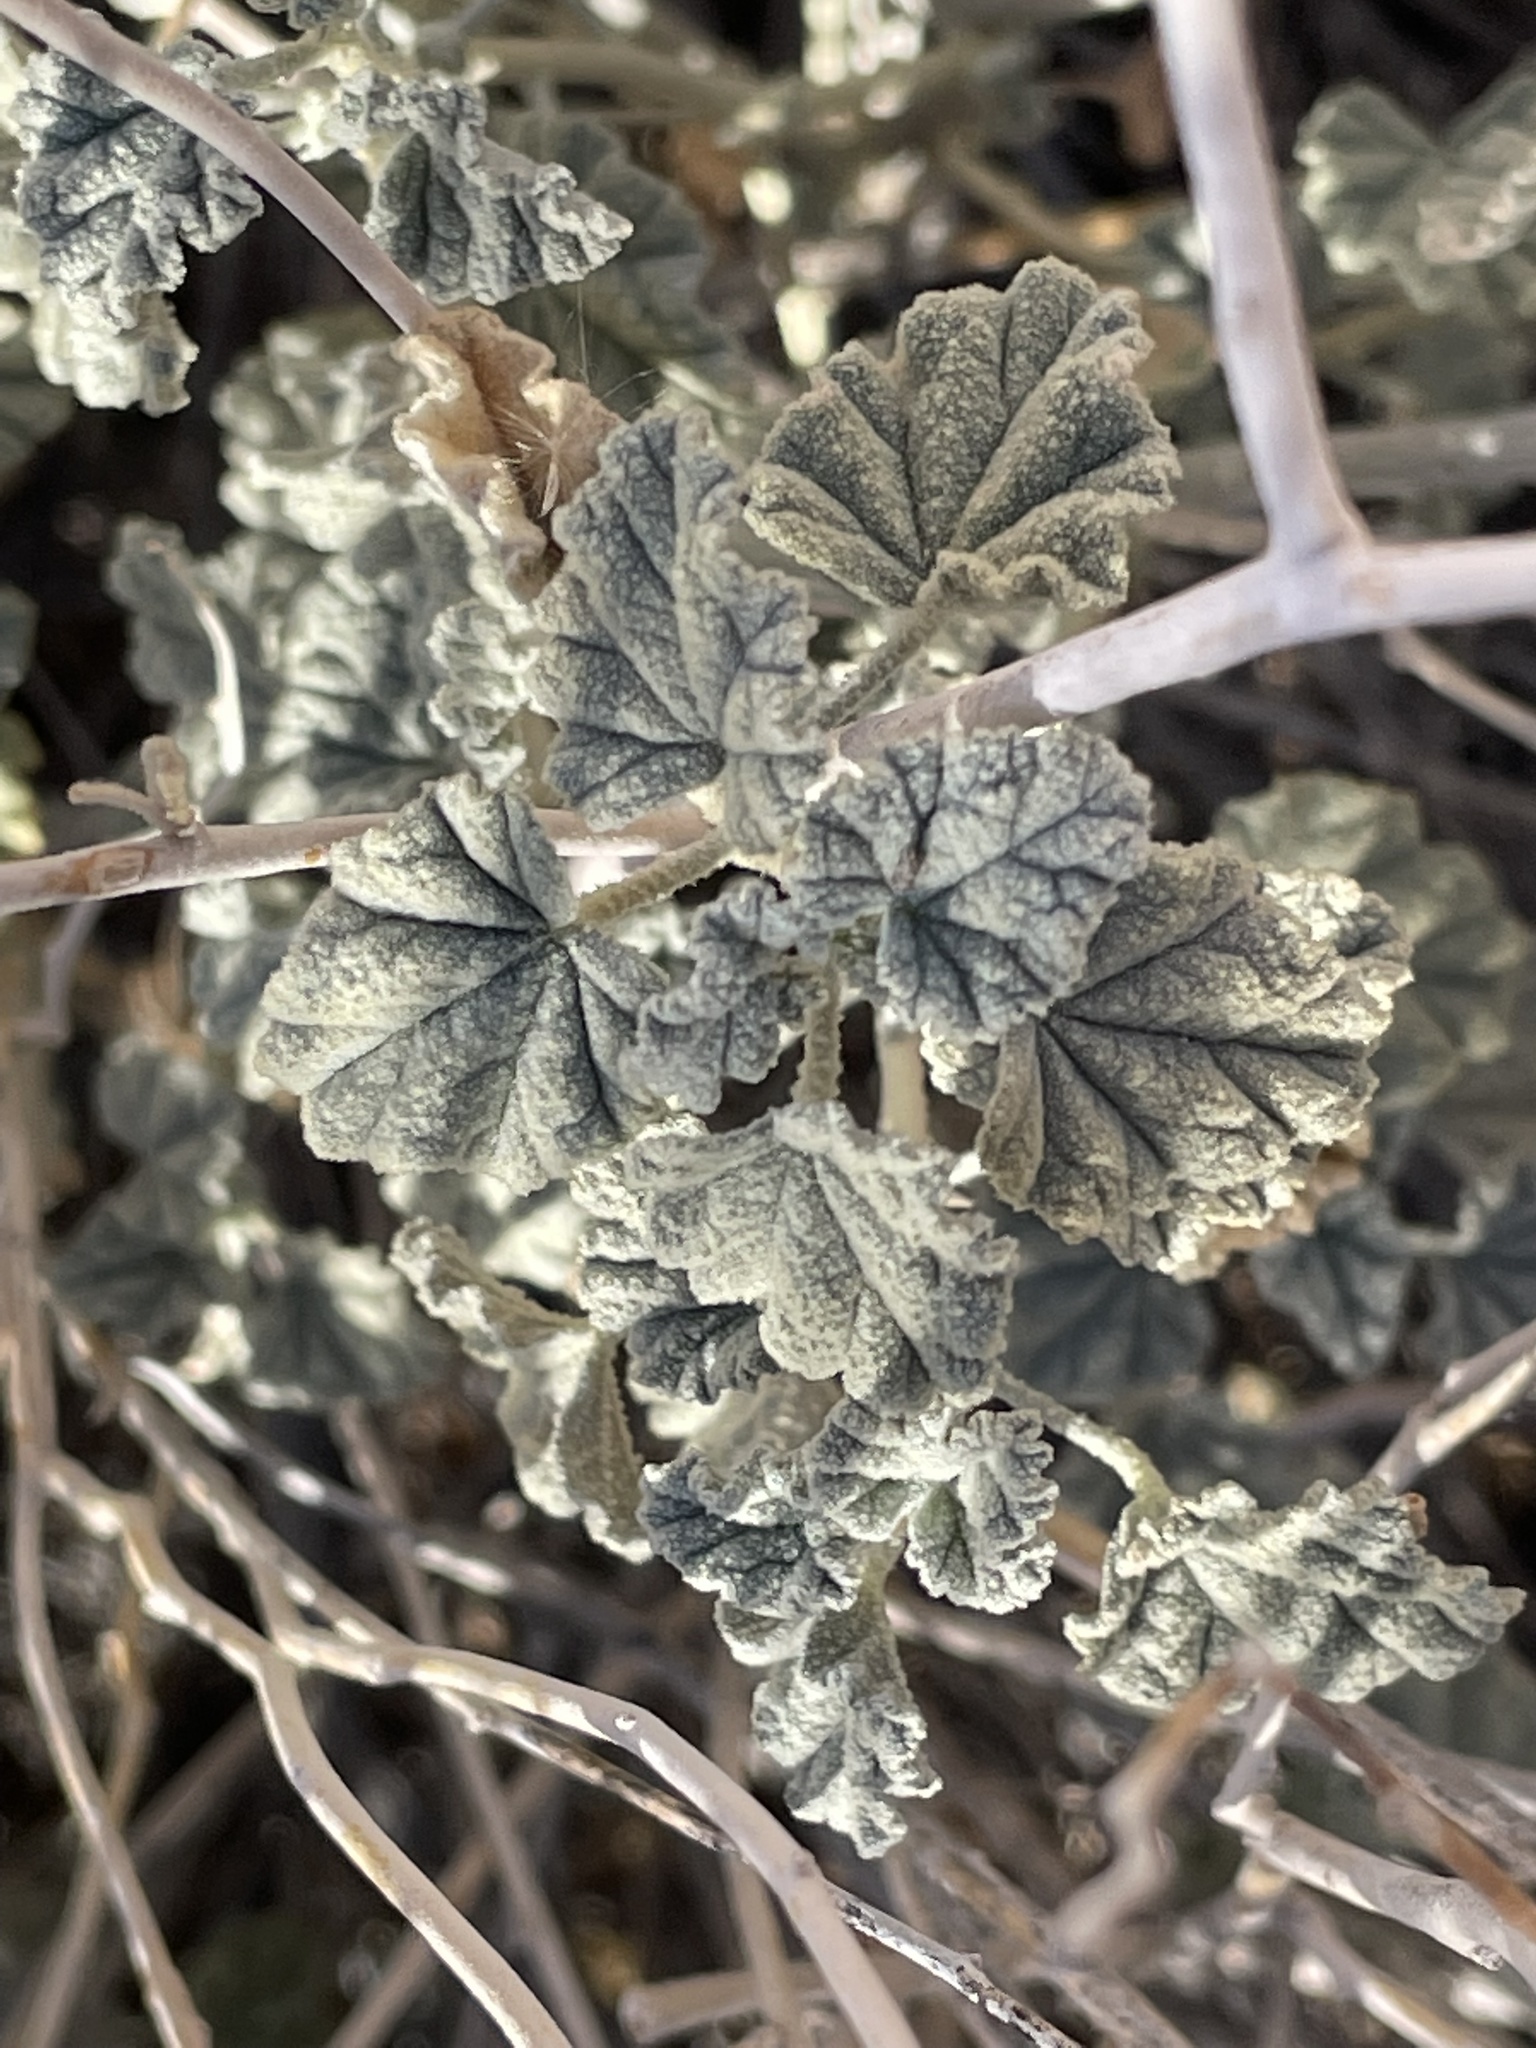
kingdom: Plantae
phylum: Tracheophyta
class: Magnoliopsida
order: Malvales
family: Malvaceae
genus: Sphaeralcea
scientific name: Sphaeralcea ambigua
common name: Apricot globe-mallow
